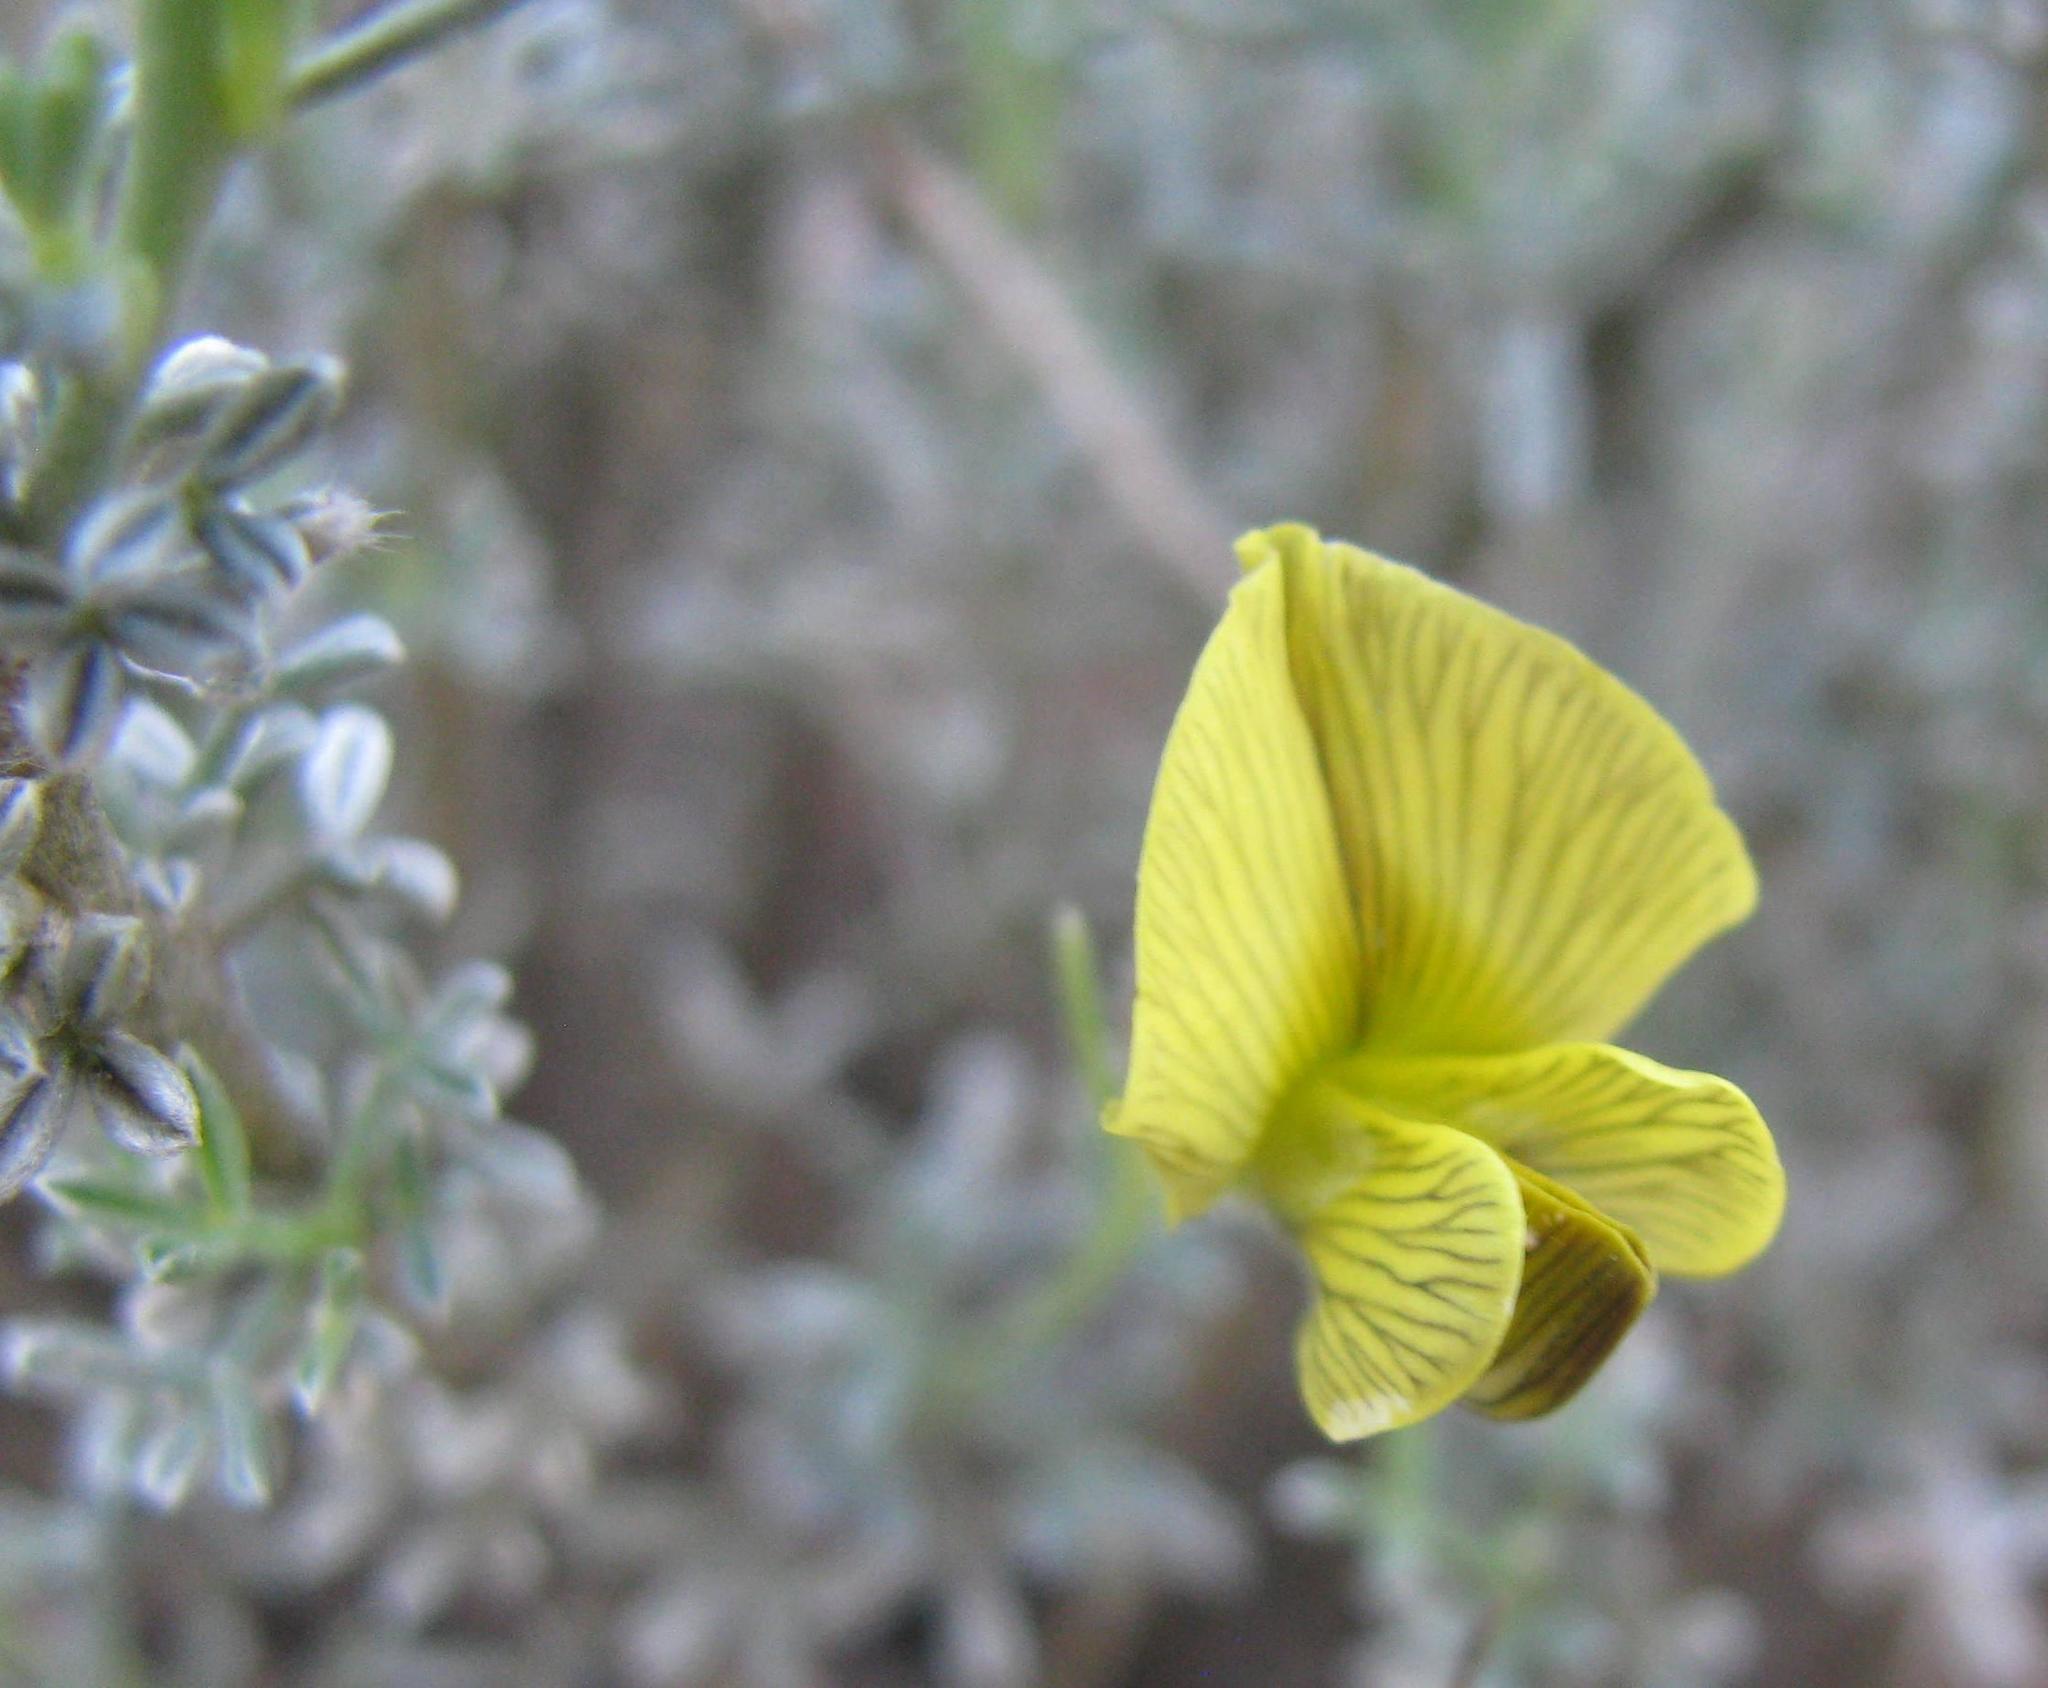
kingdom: Plantae
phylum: Tracheophyta
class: Magnoliopsida
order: Fabales
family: Fabaceae
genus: Lotononis
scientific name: Lotononis rigida
